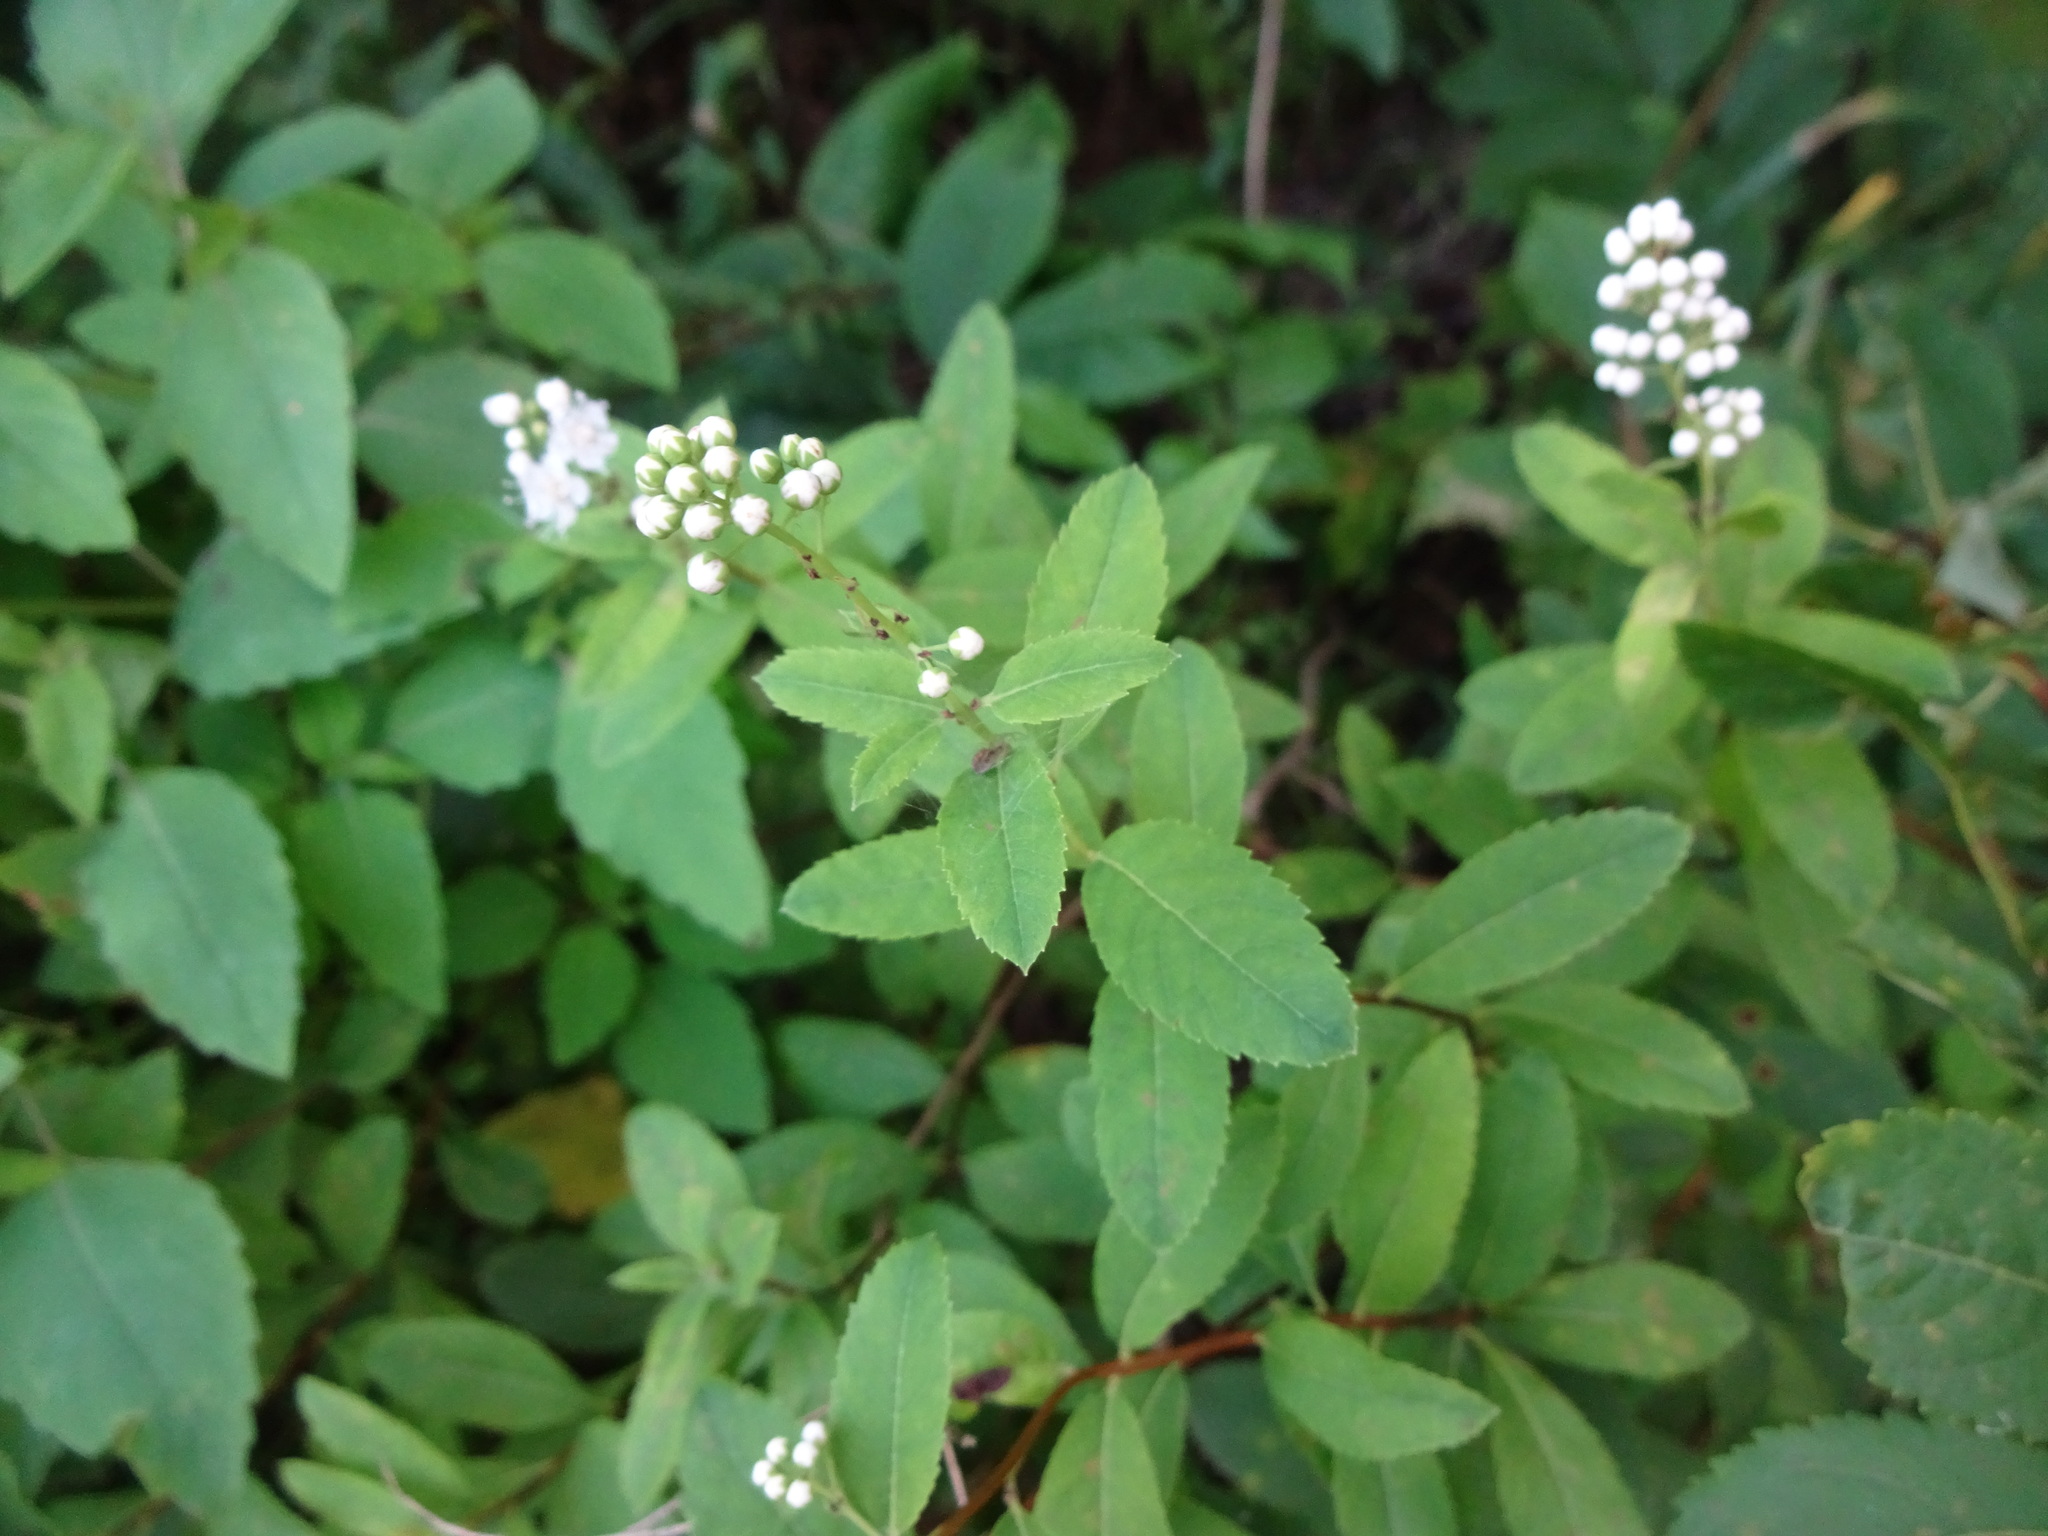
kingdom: Plantae
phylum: Tracheophyta
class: Magnoliopsida
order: Rosales
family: Rosaceae
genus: Spiraea
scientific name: Spiraea alba
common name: Pale bridewort
